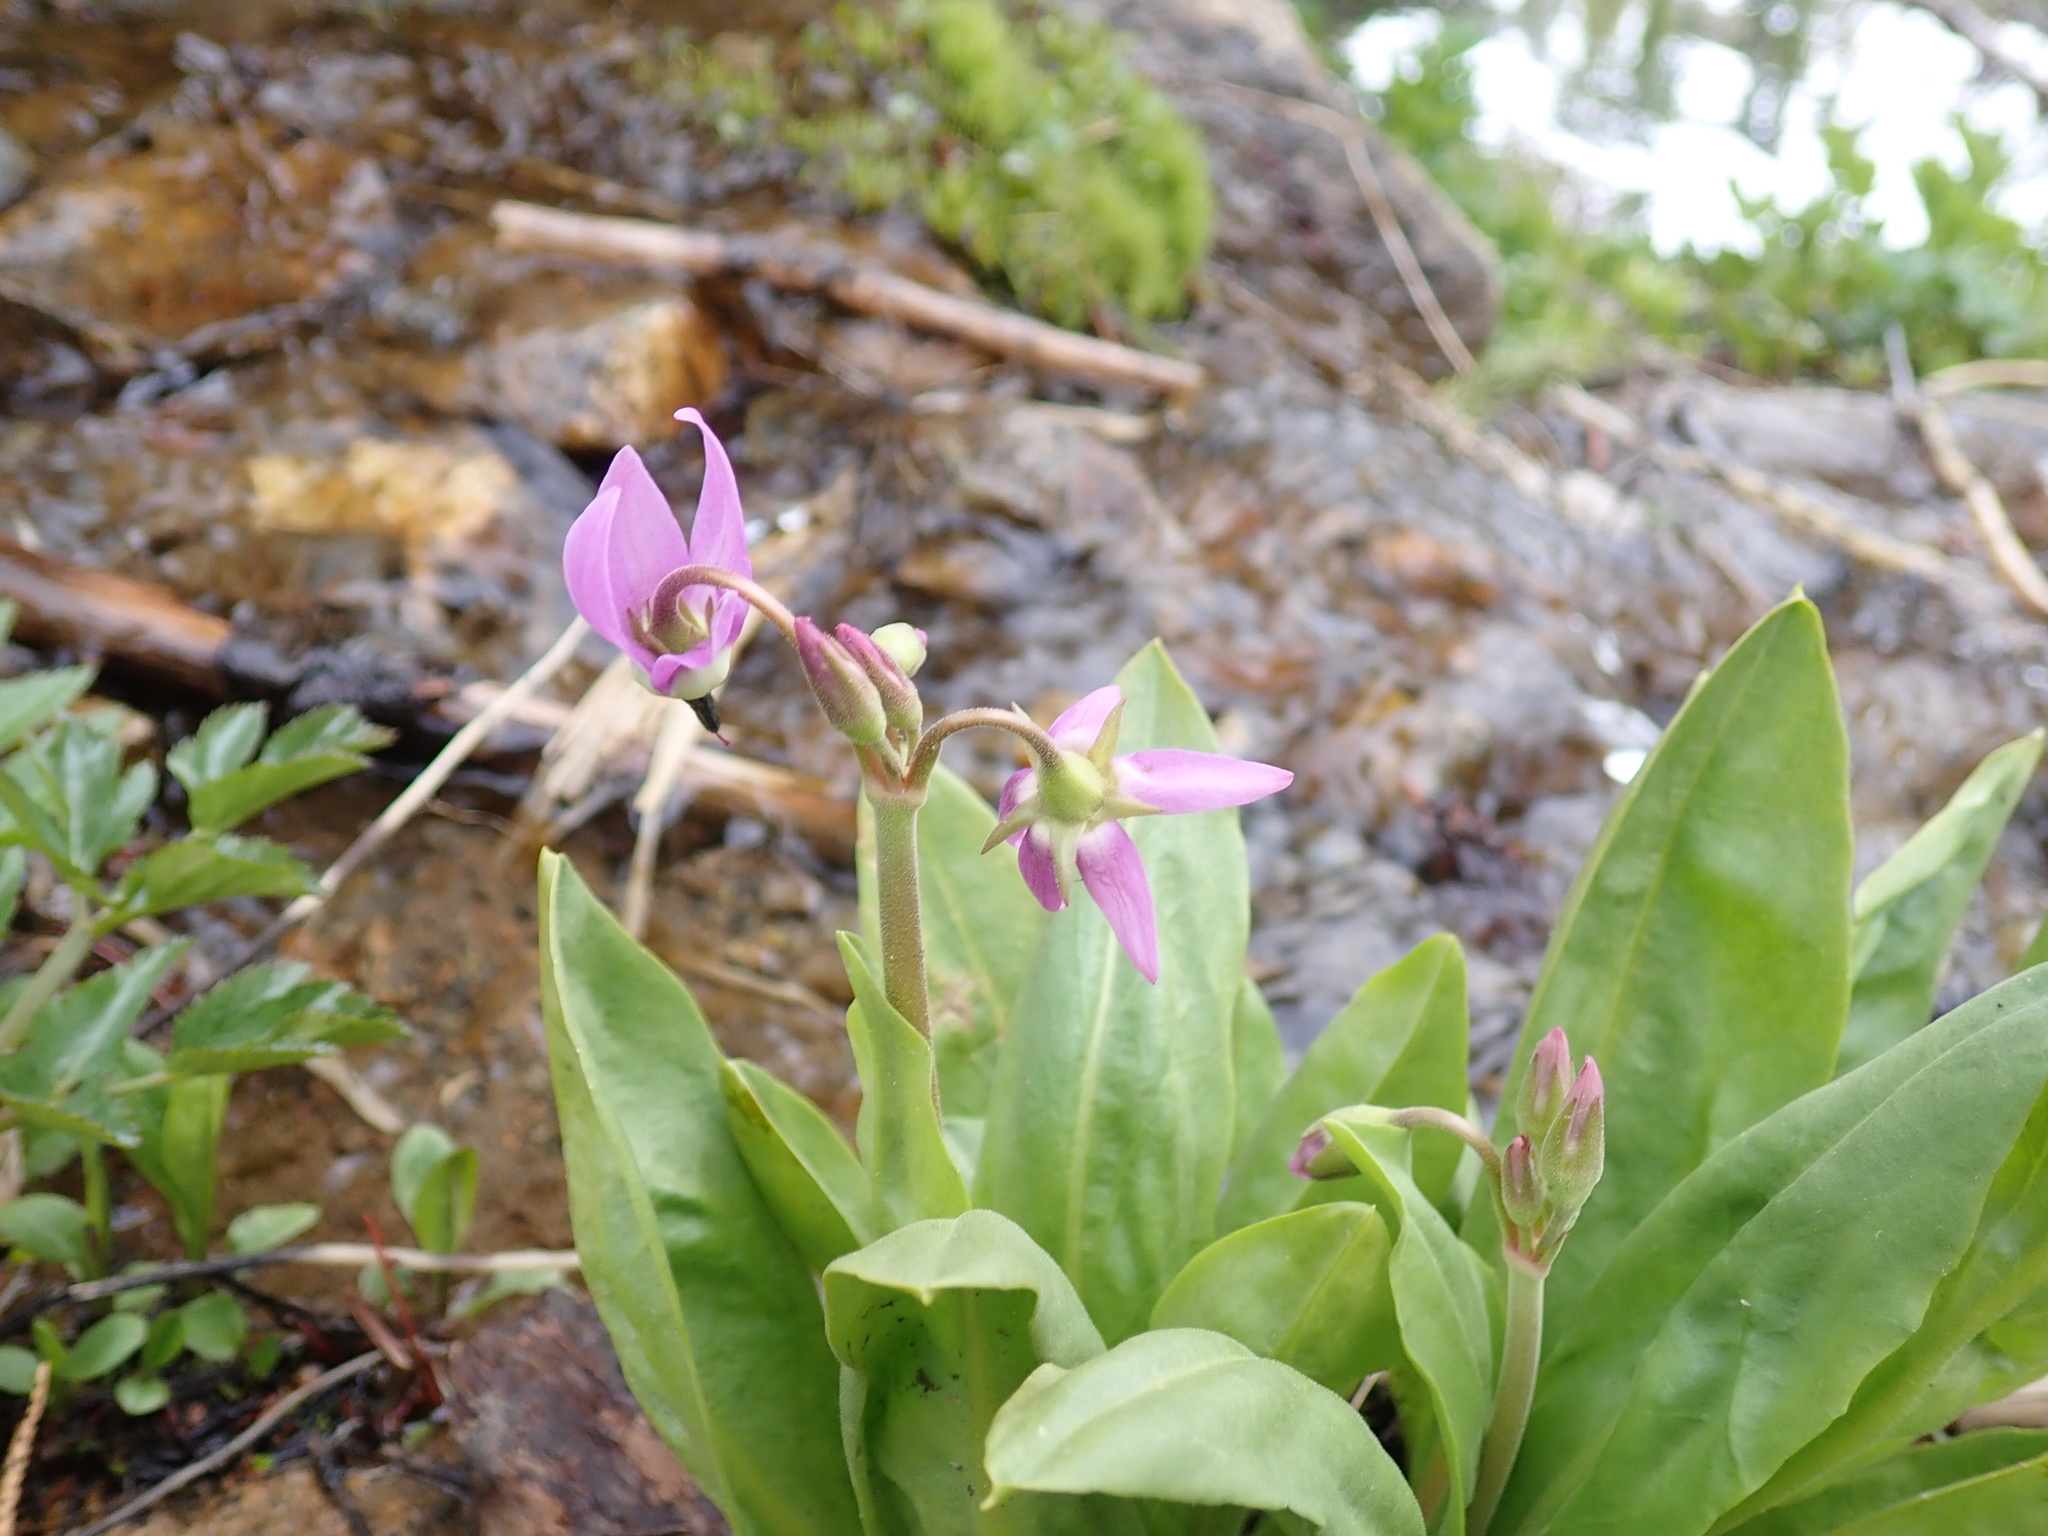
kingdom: Plantae
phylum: Tracheophyta
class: Magnoliopsida
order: Ericales
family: Primulaceae
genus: Dodecatheon
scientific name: Dodecatheon jeffreyanum
